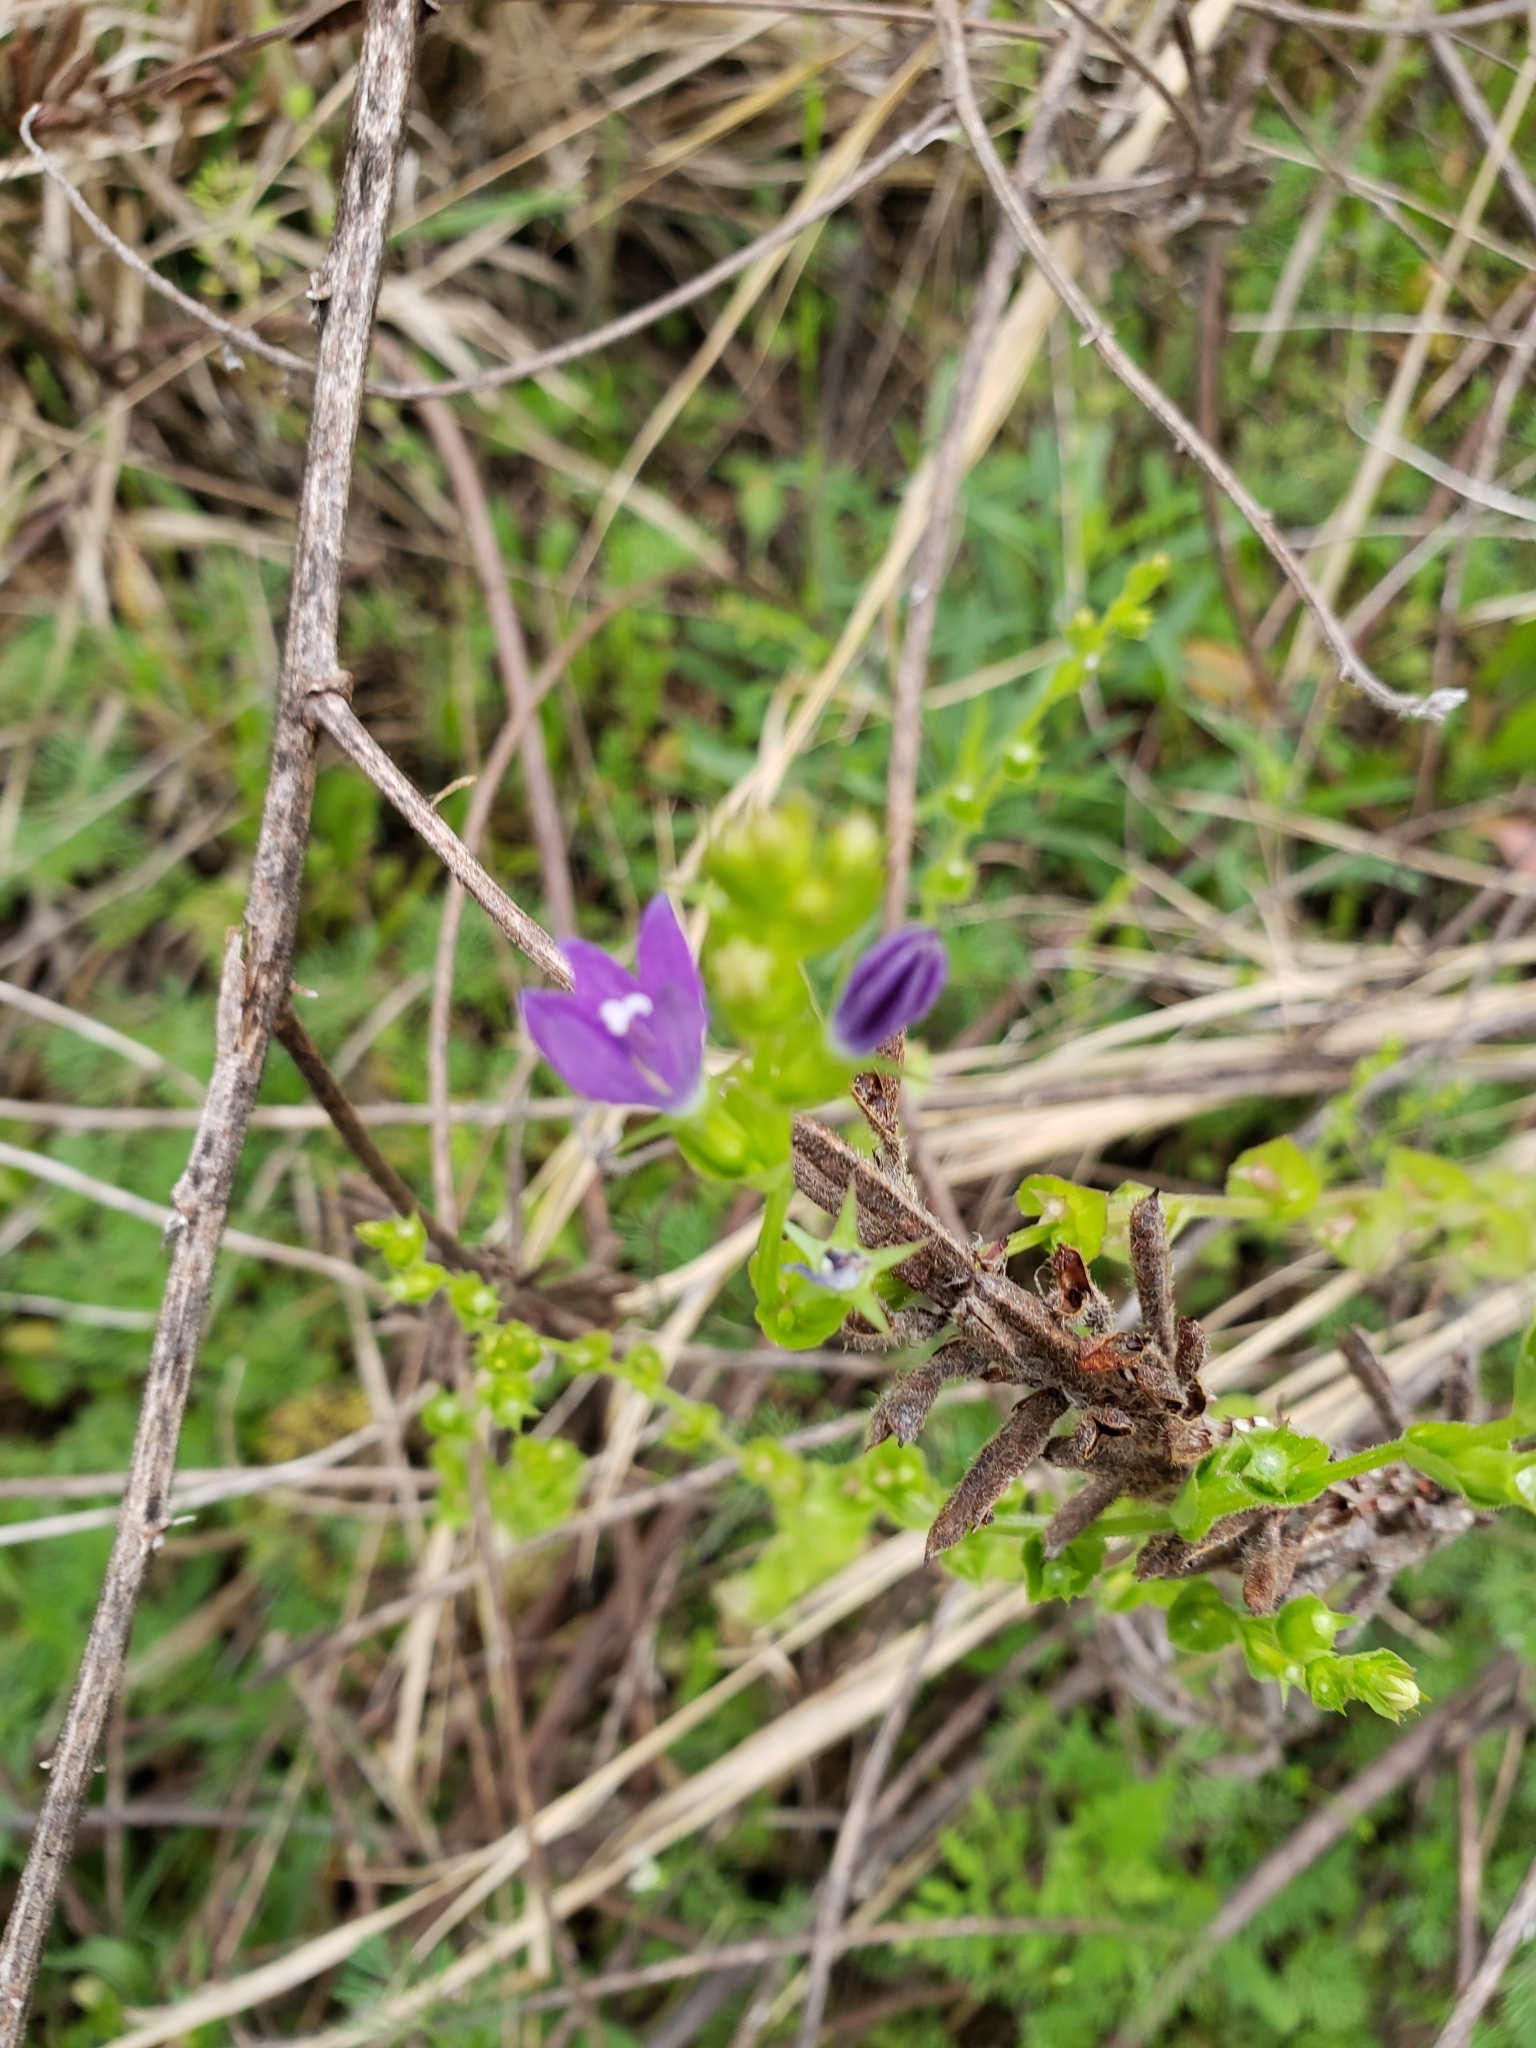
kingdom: Plantae
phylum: Tracheophyta
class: Magnoliopsida
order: Asterales
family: Campanulaceae
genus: Triodanis
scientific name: Triodanis perfoliata
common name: Clasping venus' looking-glass
